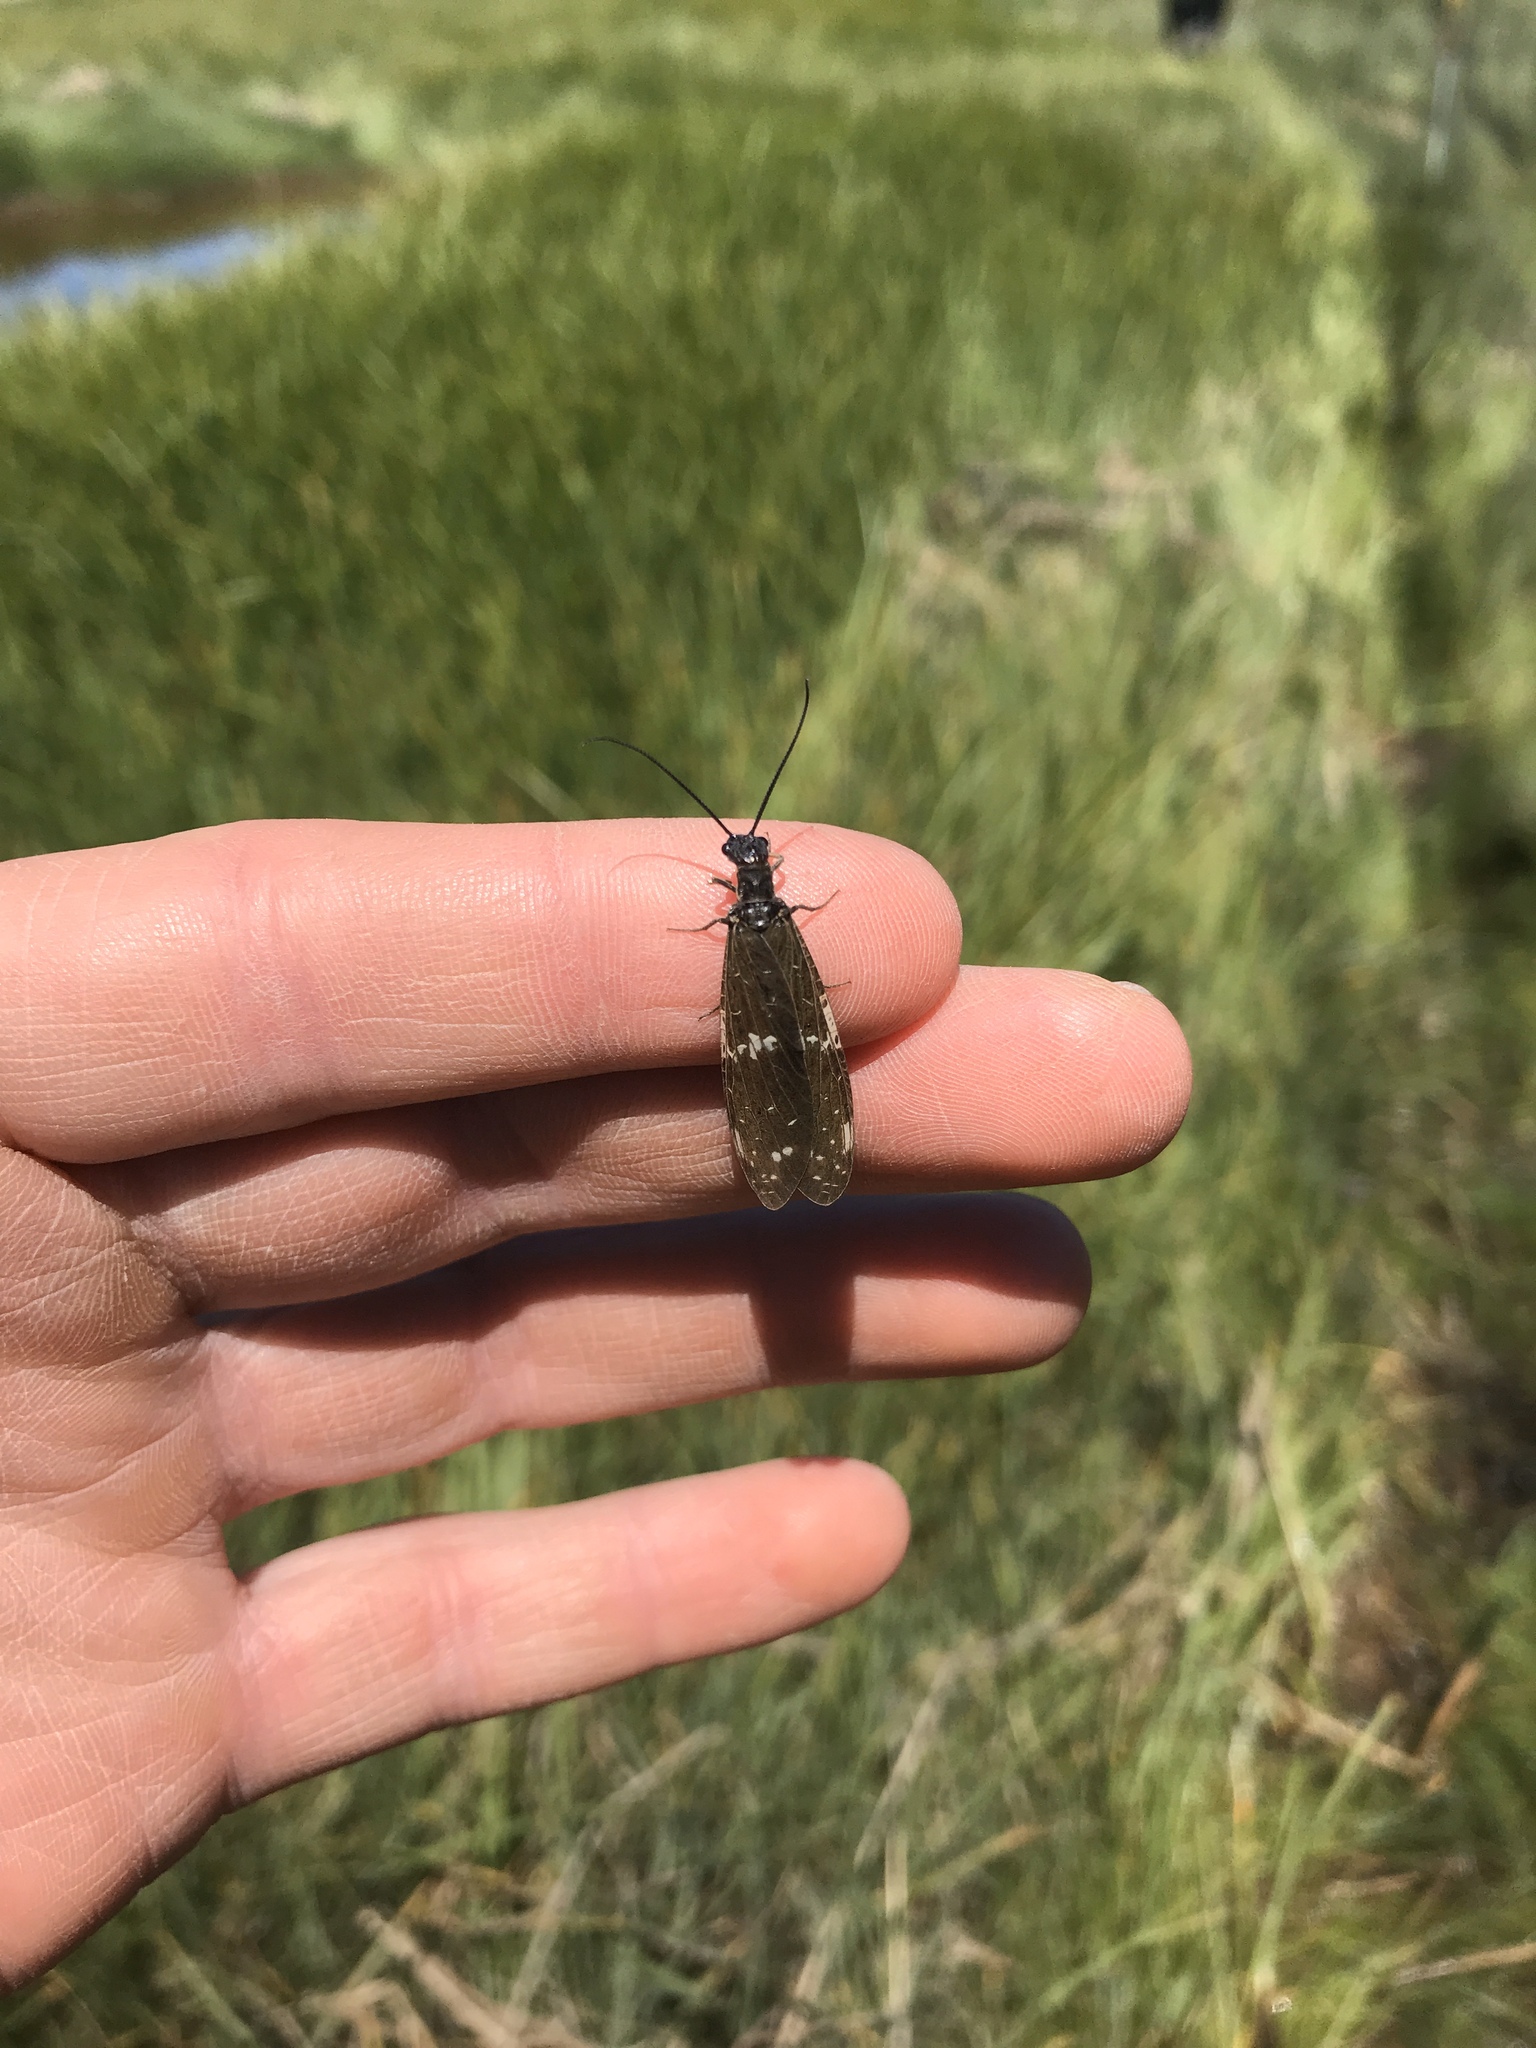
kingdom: Animalia
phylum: Arthropoda
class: Insecta
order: Megaloptera
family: Corydalidae
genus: Nigronia
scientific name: Nigronia serricornis
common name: Serrate dark fishfly
